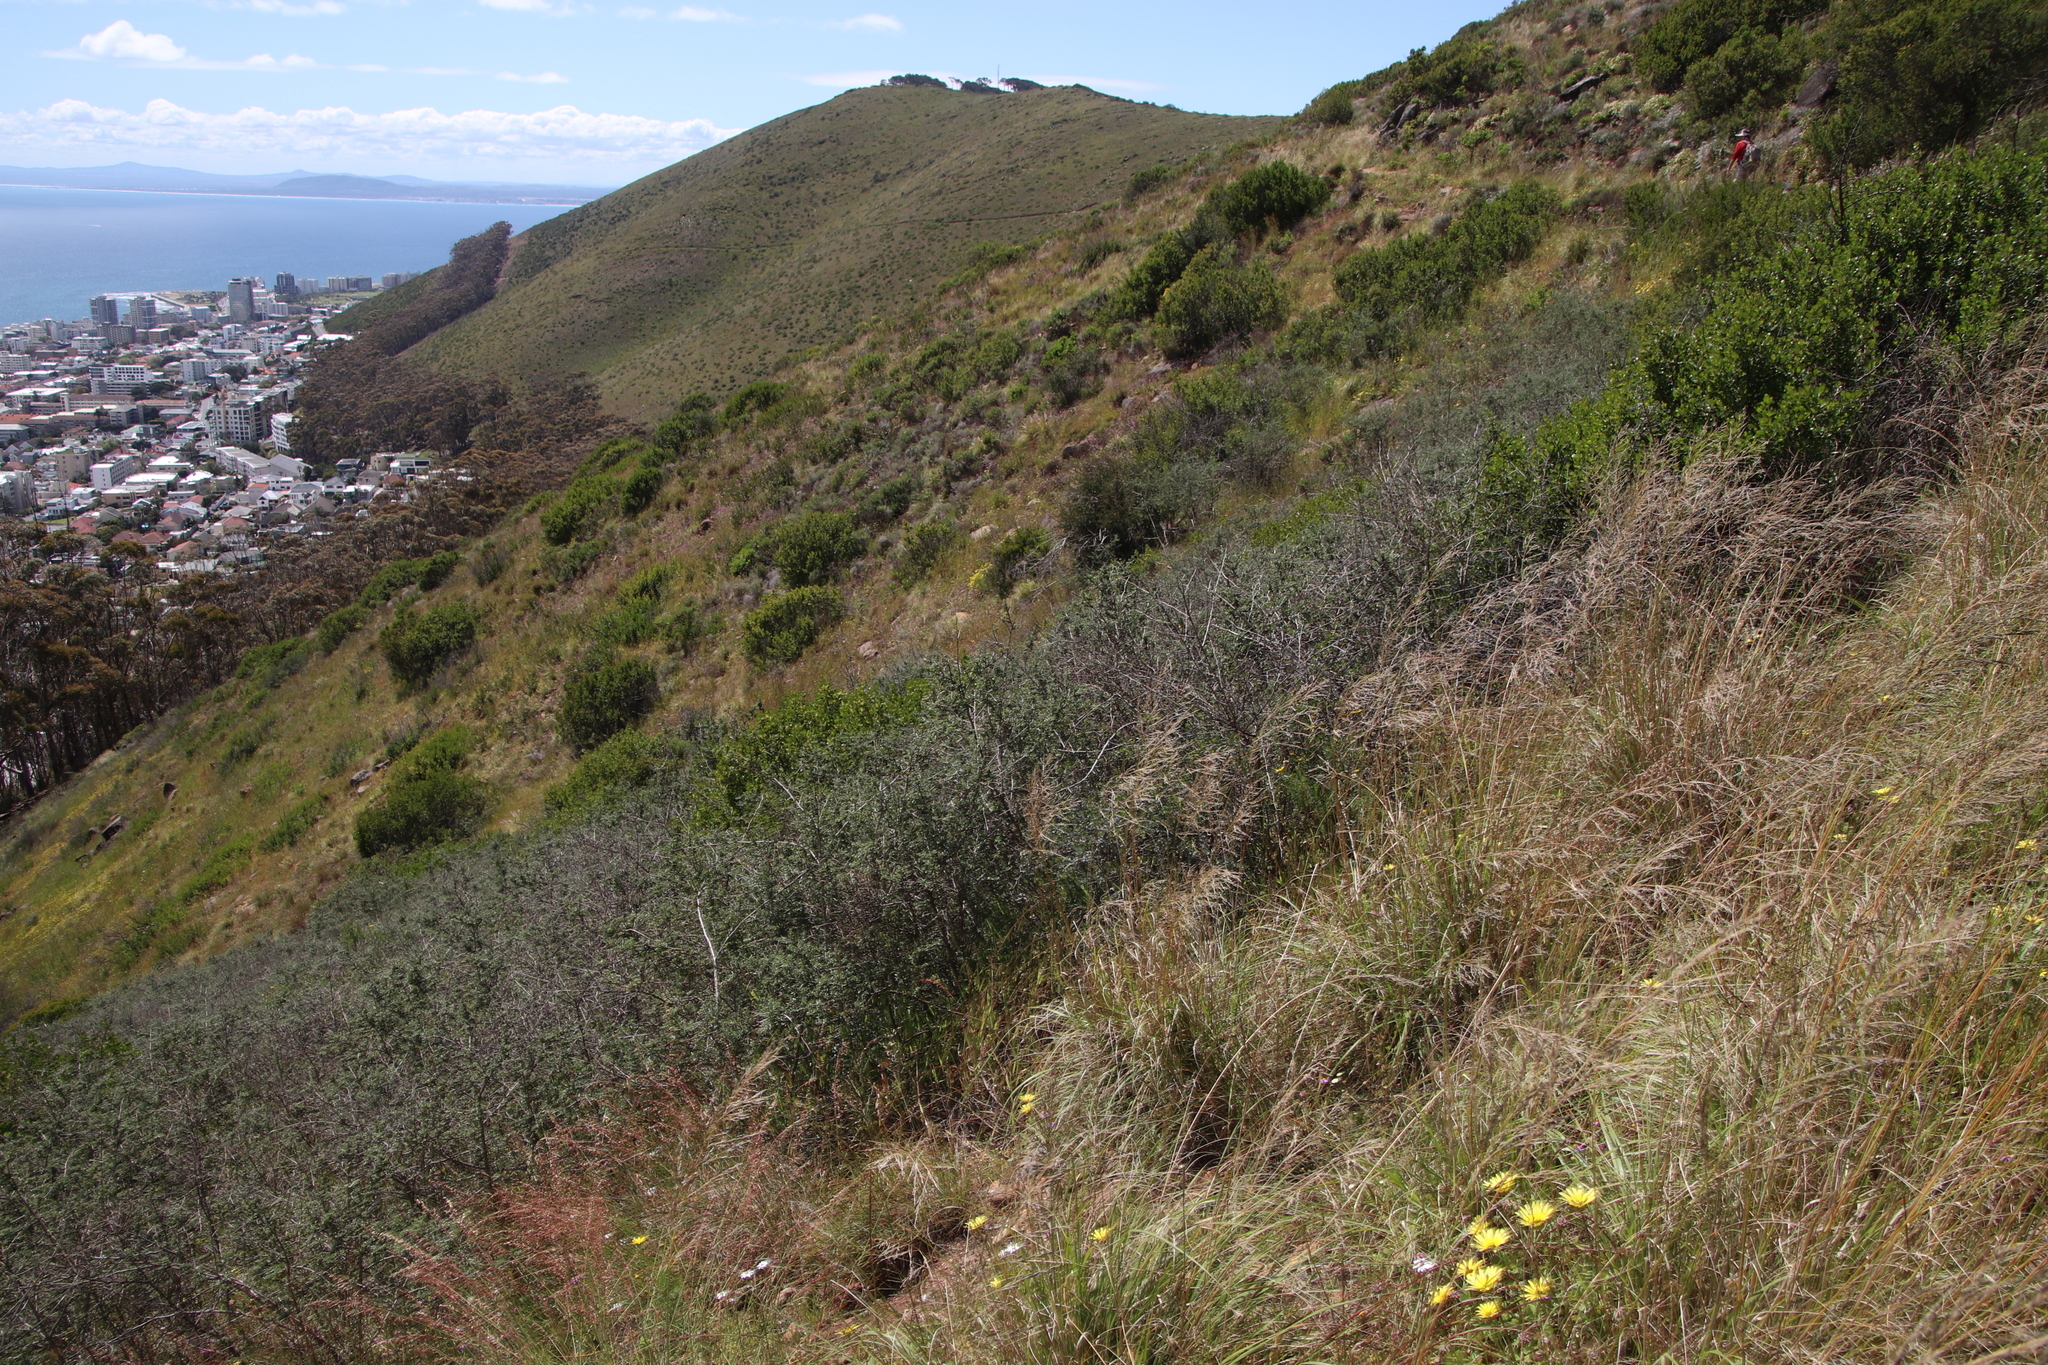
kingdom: Plantae
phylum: Tracheophyta
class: Magnoliopsida
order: Fabales
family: Fabaceae
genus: Psoralea
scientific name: Psoralea hirta
